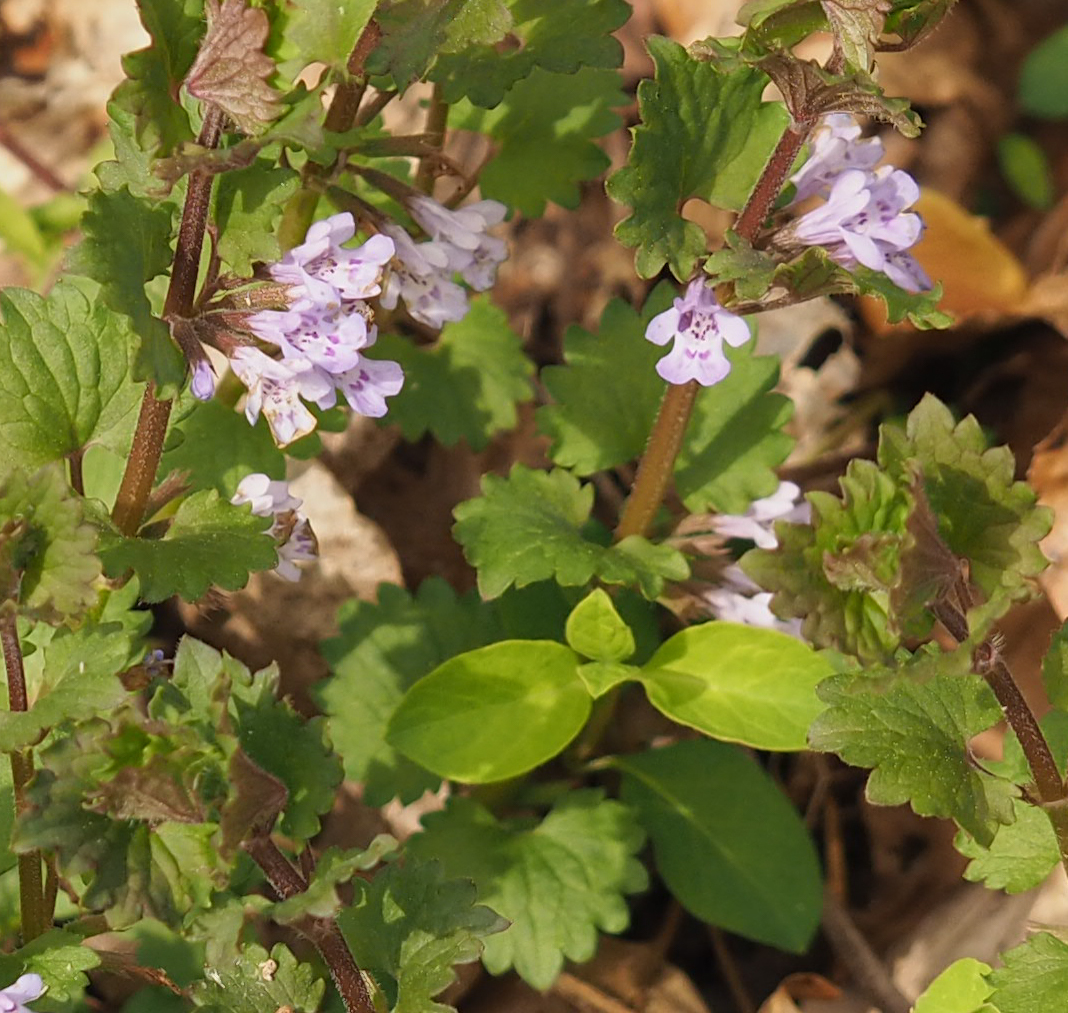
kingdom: Plantae
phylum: Tracheophyta
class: Magnoliopsida
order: Lamiales
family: Lamiaceae
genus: Glechoma
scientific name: Glechoma hederacea
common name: Ground ivy
